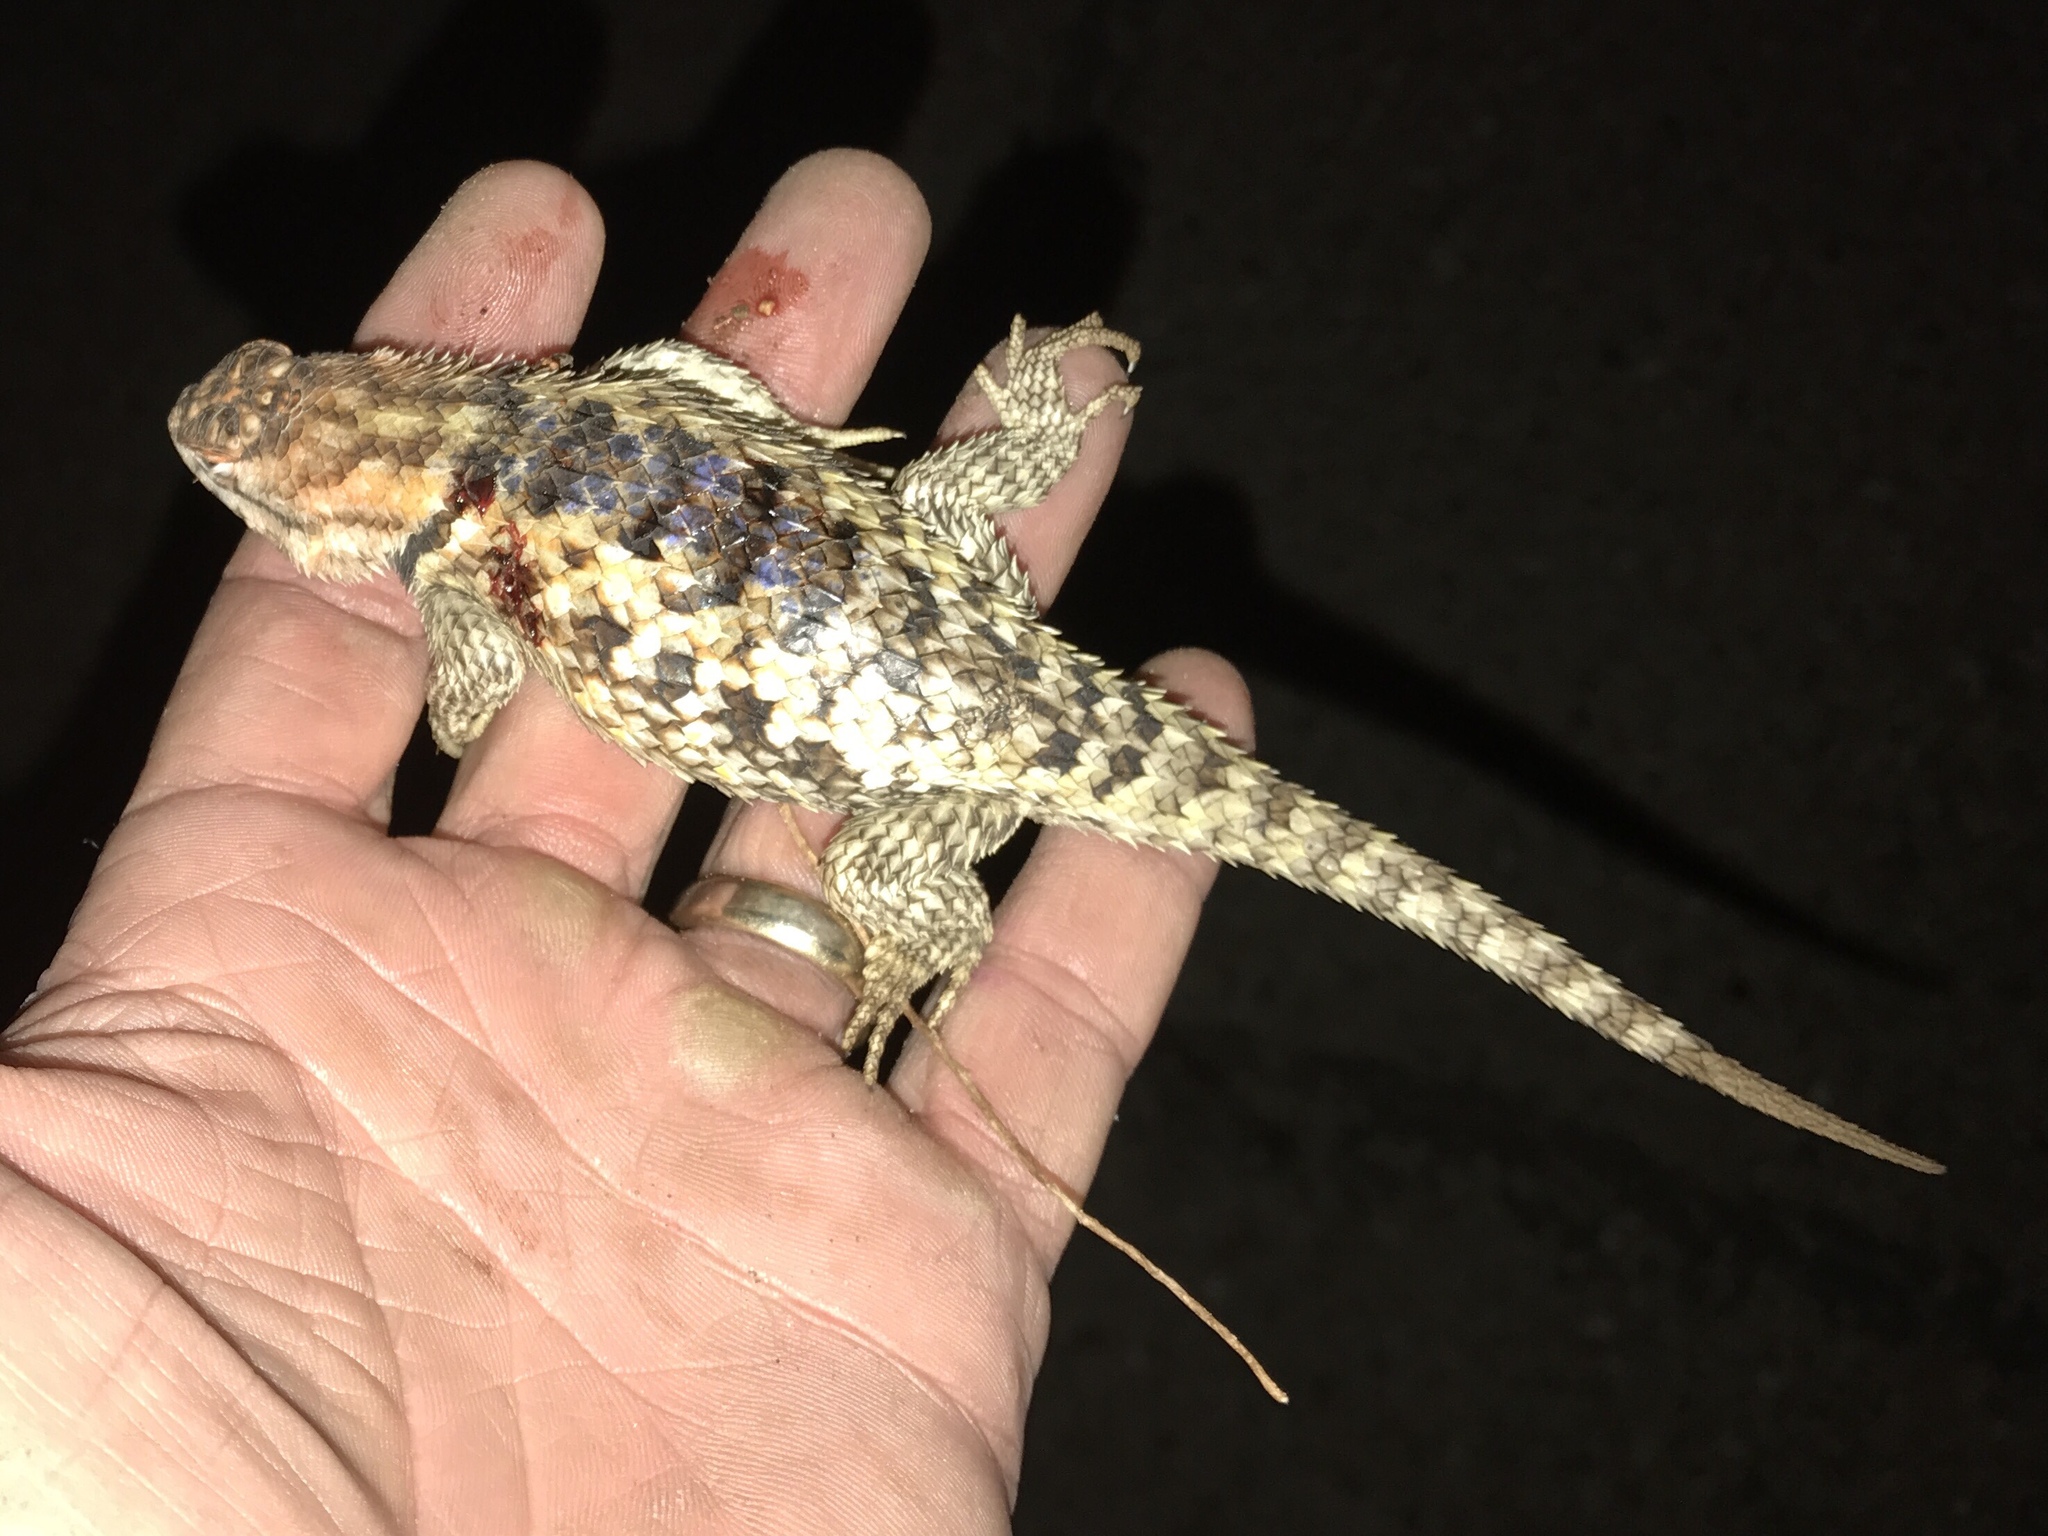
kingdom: Animalia
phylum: Chordata
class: Squamata
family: Phrynosomatidae
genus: Sceloporus
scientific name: Sceloporus magister
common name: Desert spiny lizard
